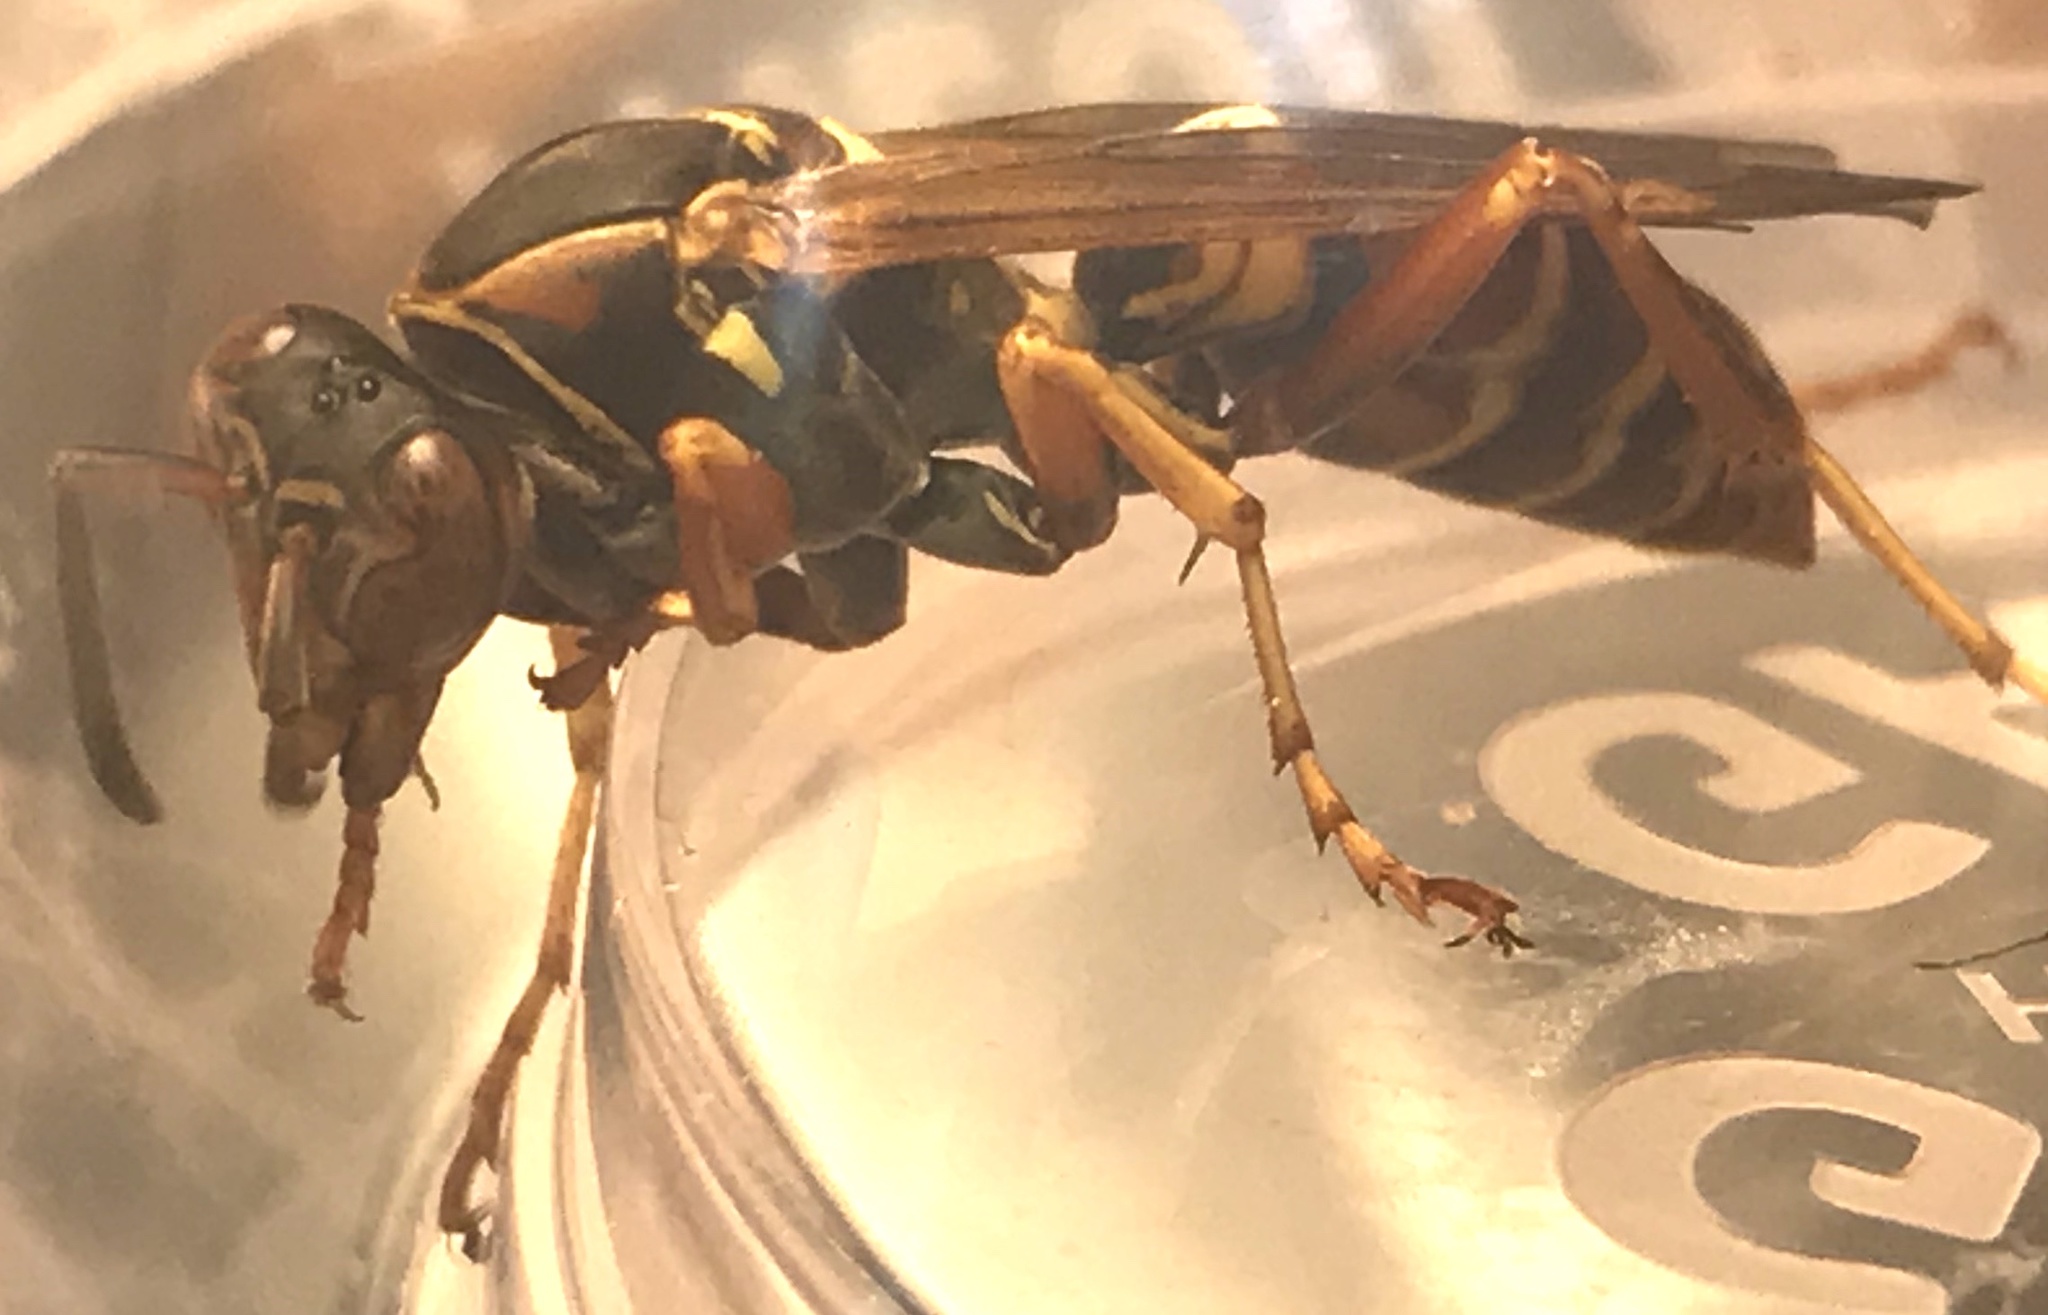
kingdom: Animalia
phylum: Arthropoda
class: Insecta
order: Hymenoptera
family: Eumenidae
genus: Polistes
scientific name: Polistes fuscatus
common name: Dark paper wasp
